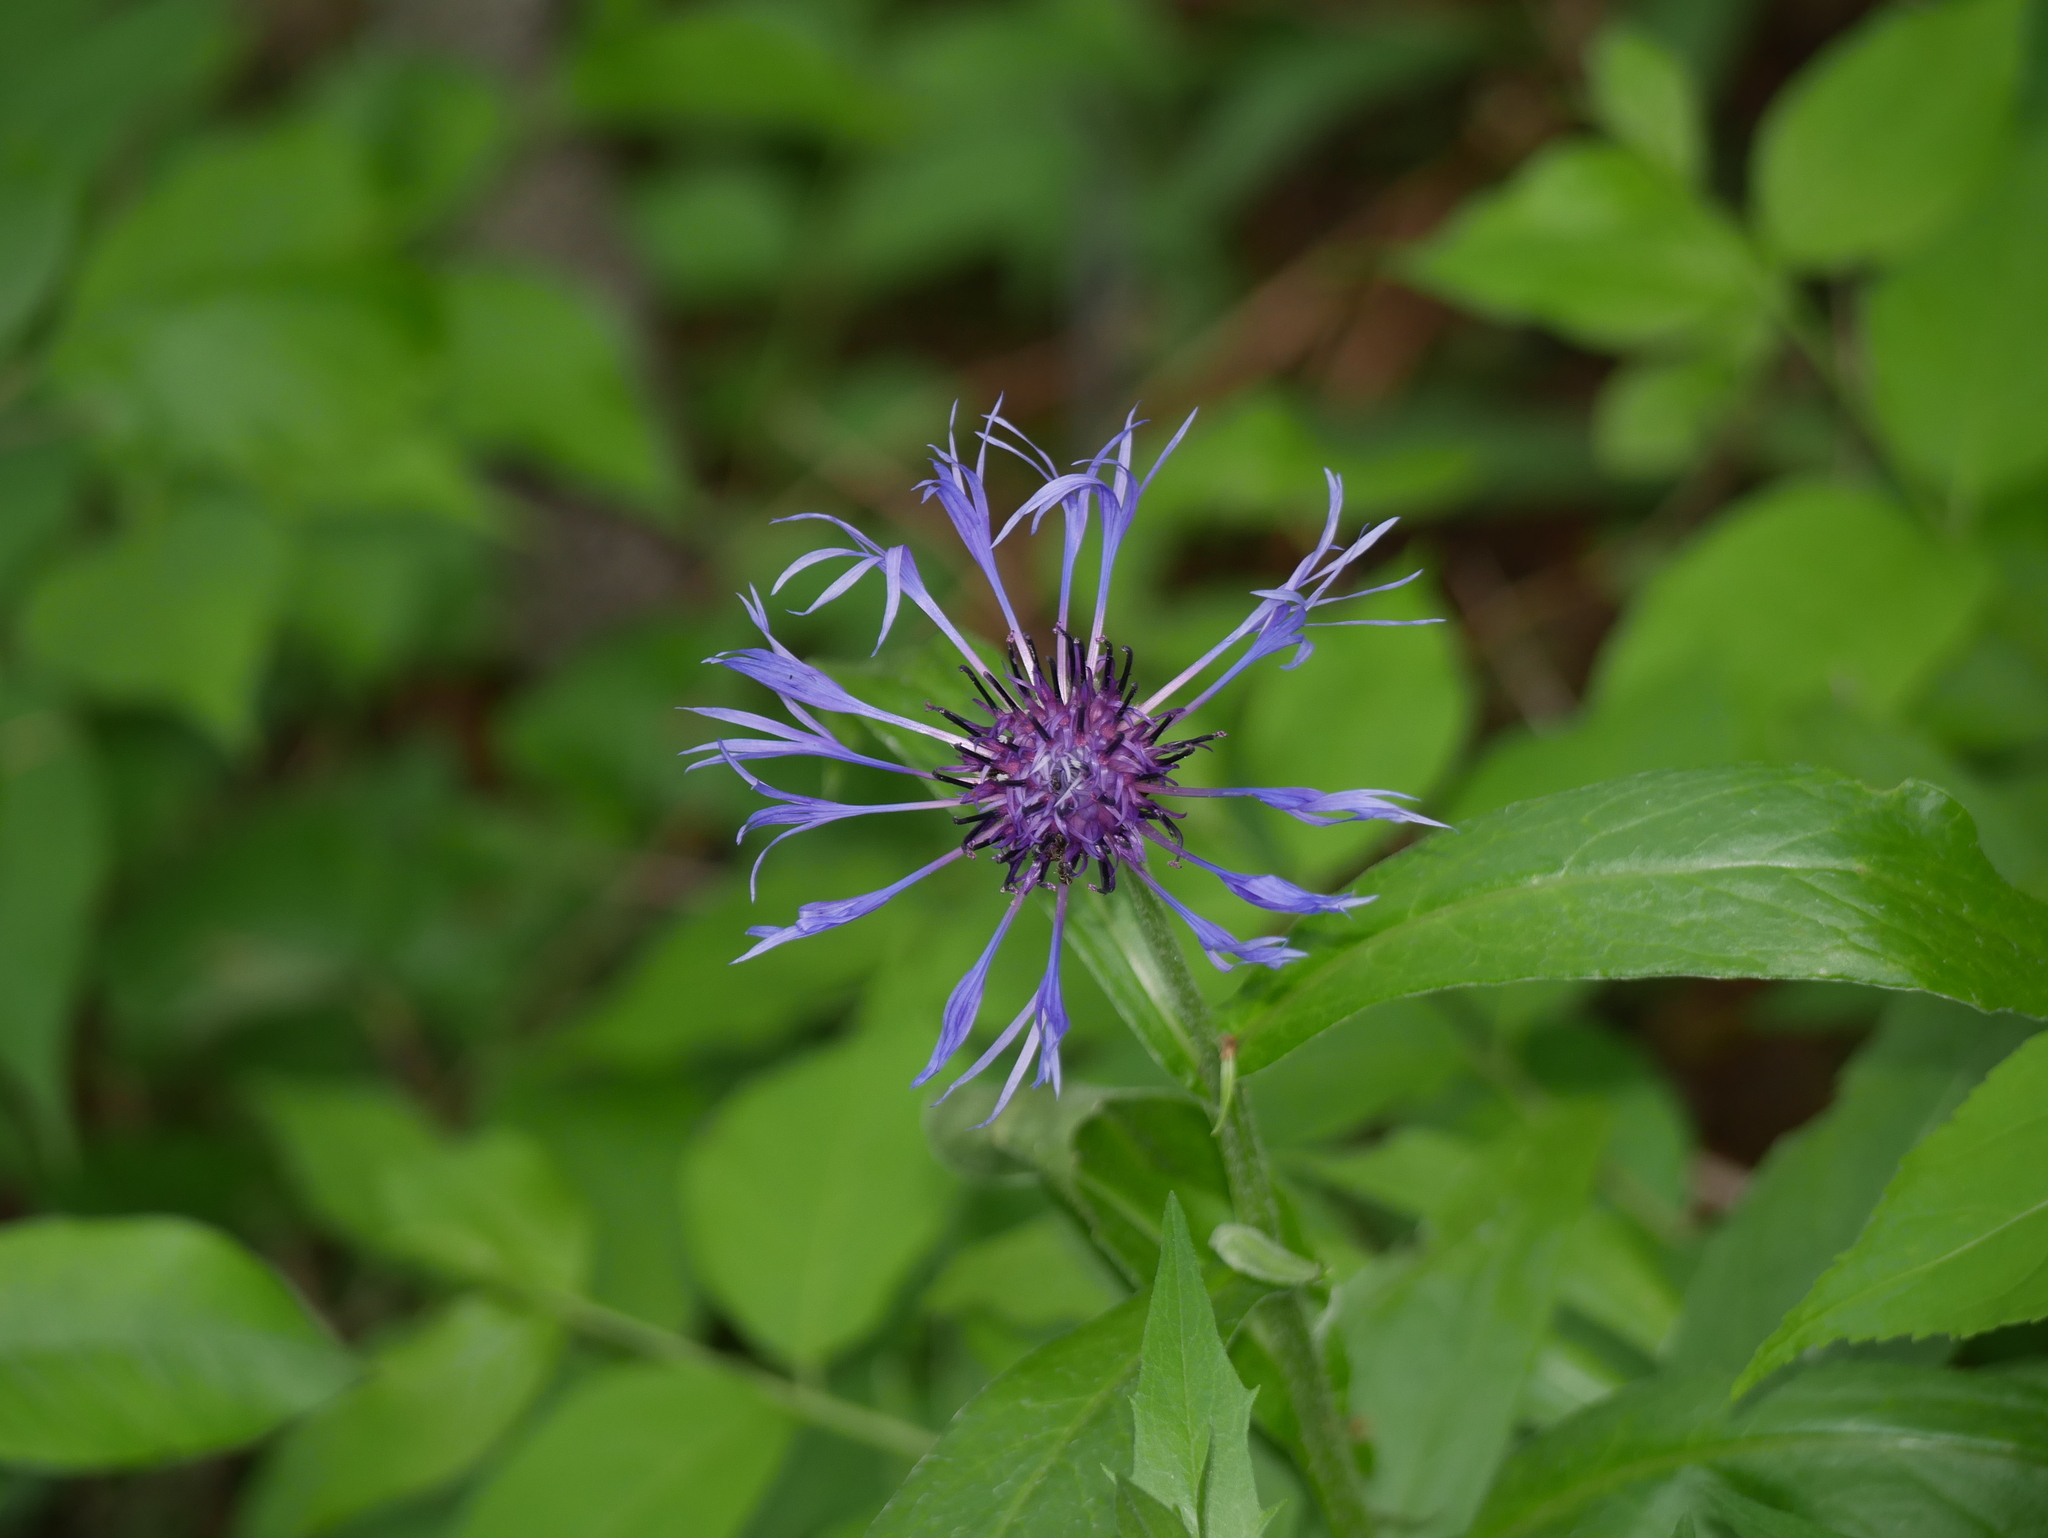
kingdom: Plantae
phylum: Tracheophyta
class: Magnoliopsida
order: Asterales
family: Asteraceae
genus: Centaurea
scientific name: Centaurea montana
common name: Perennial cornflower
